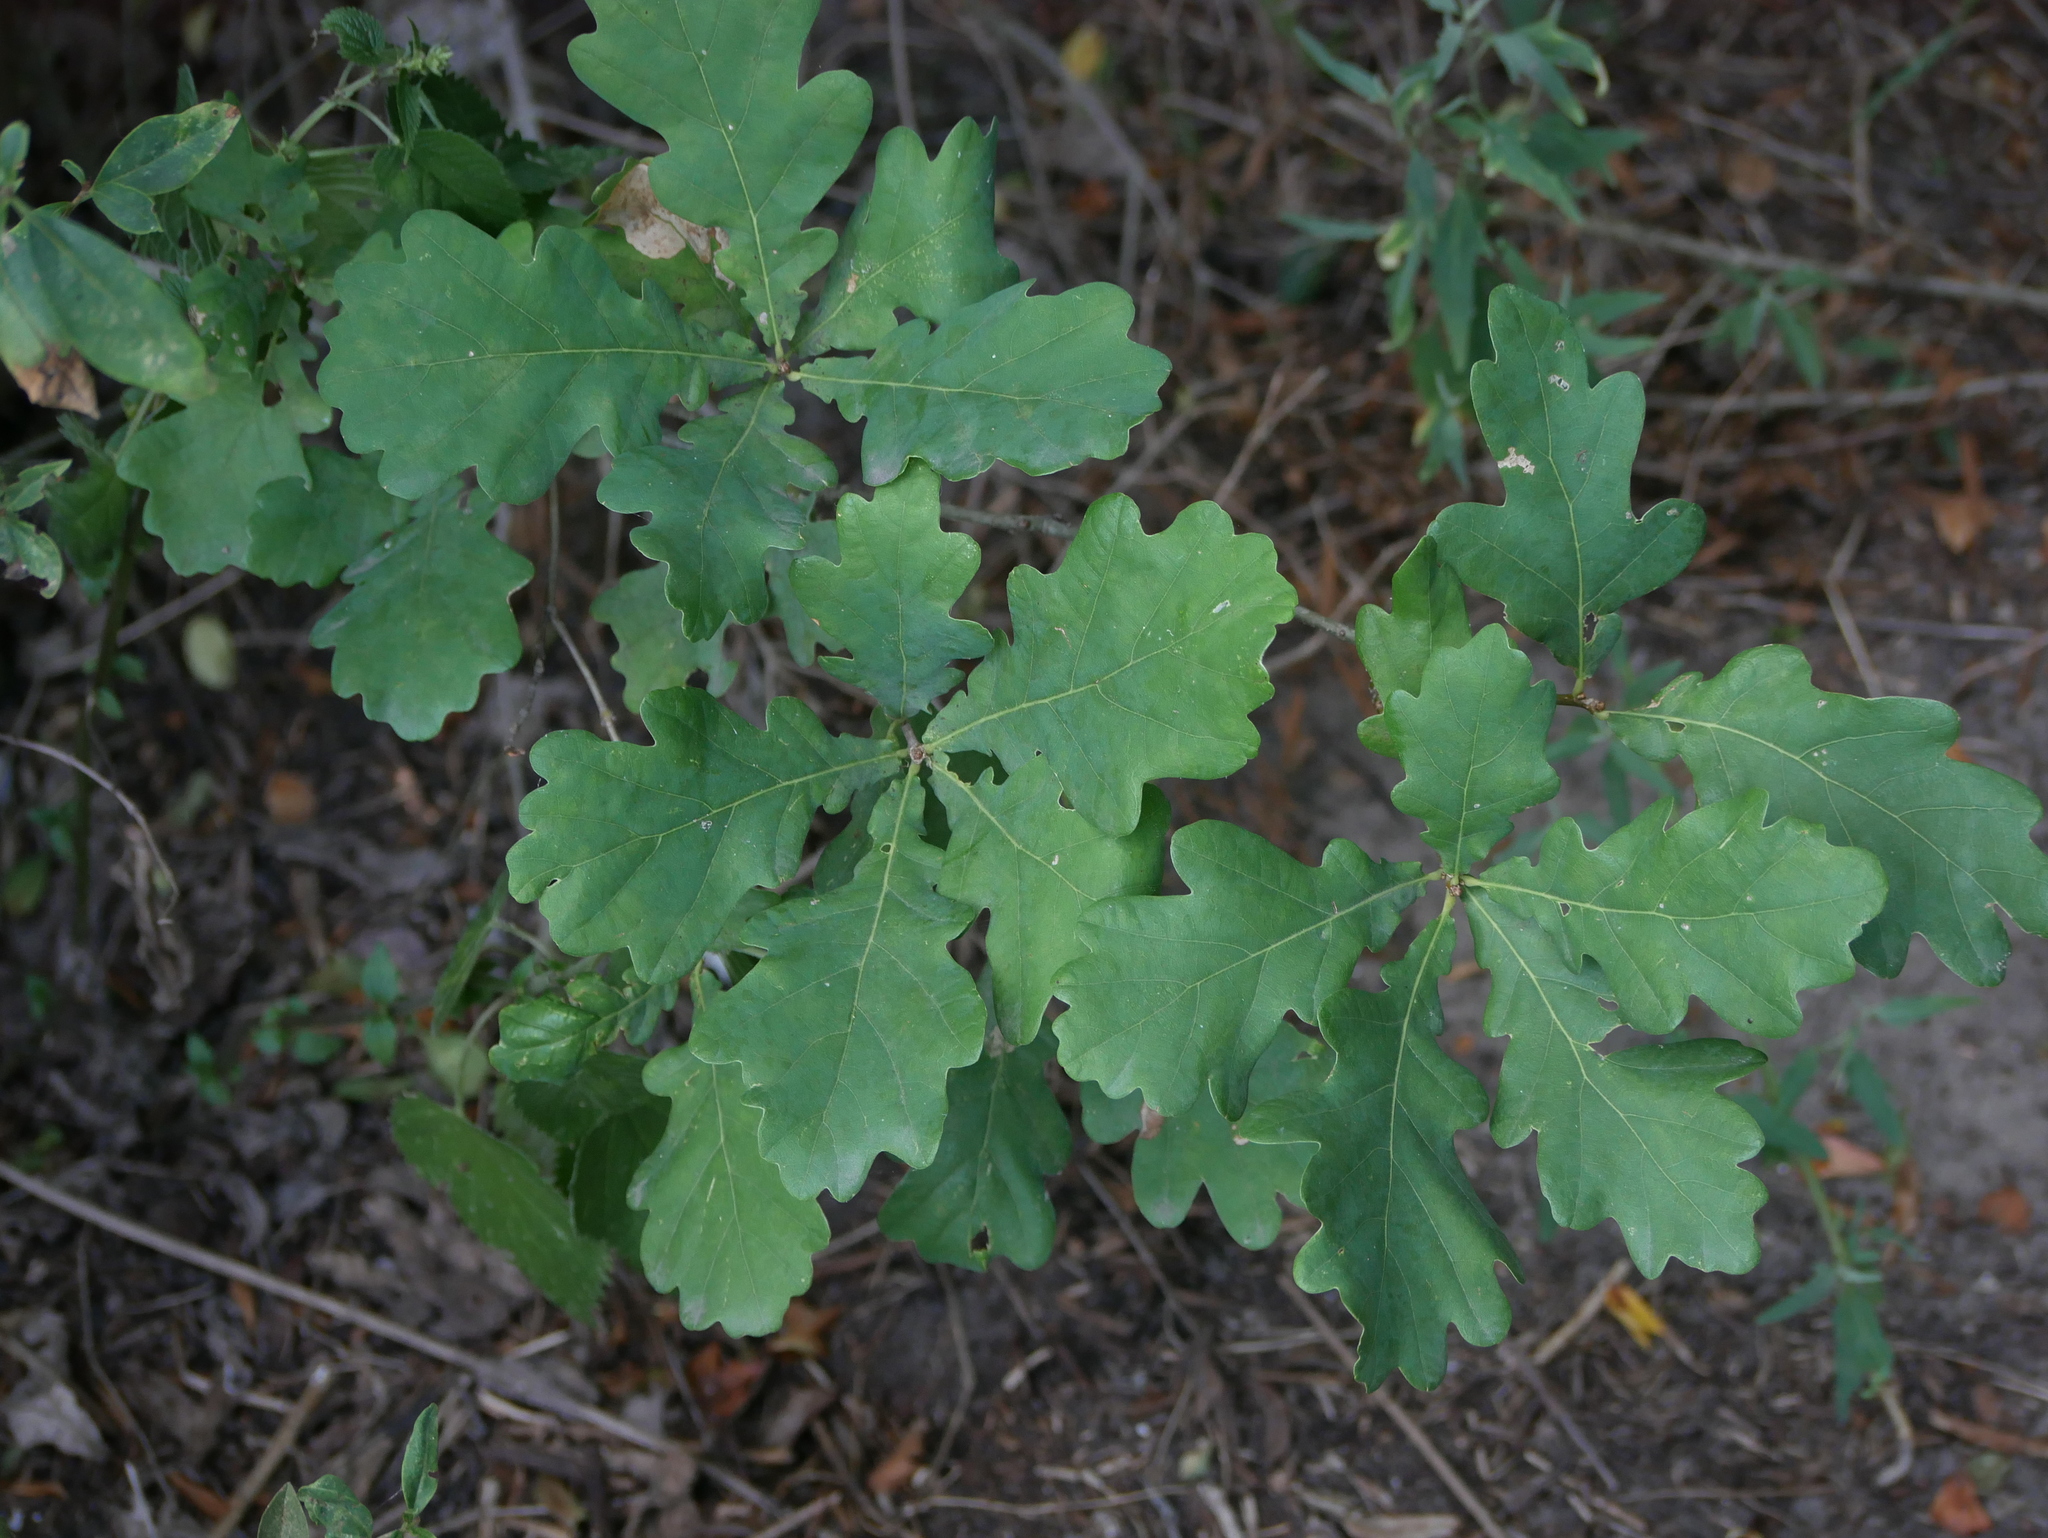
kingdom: Plantae
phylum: Tracheophyta
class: Magnoliopsida
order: Fagales
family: Fagaceae
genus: Quercus
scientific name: Quercus robur
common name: Pedunculate oak
